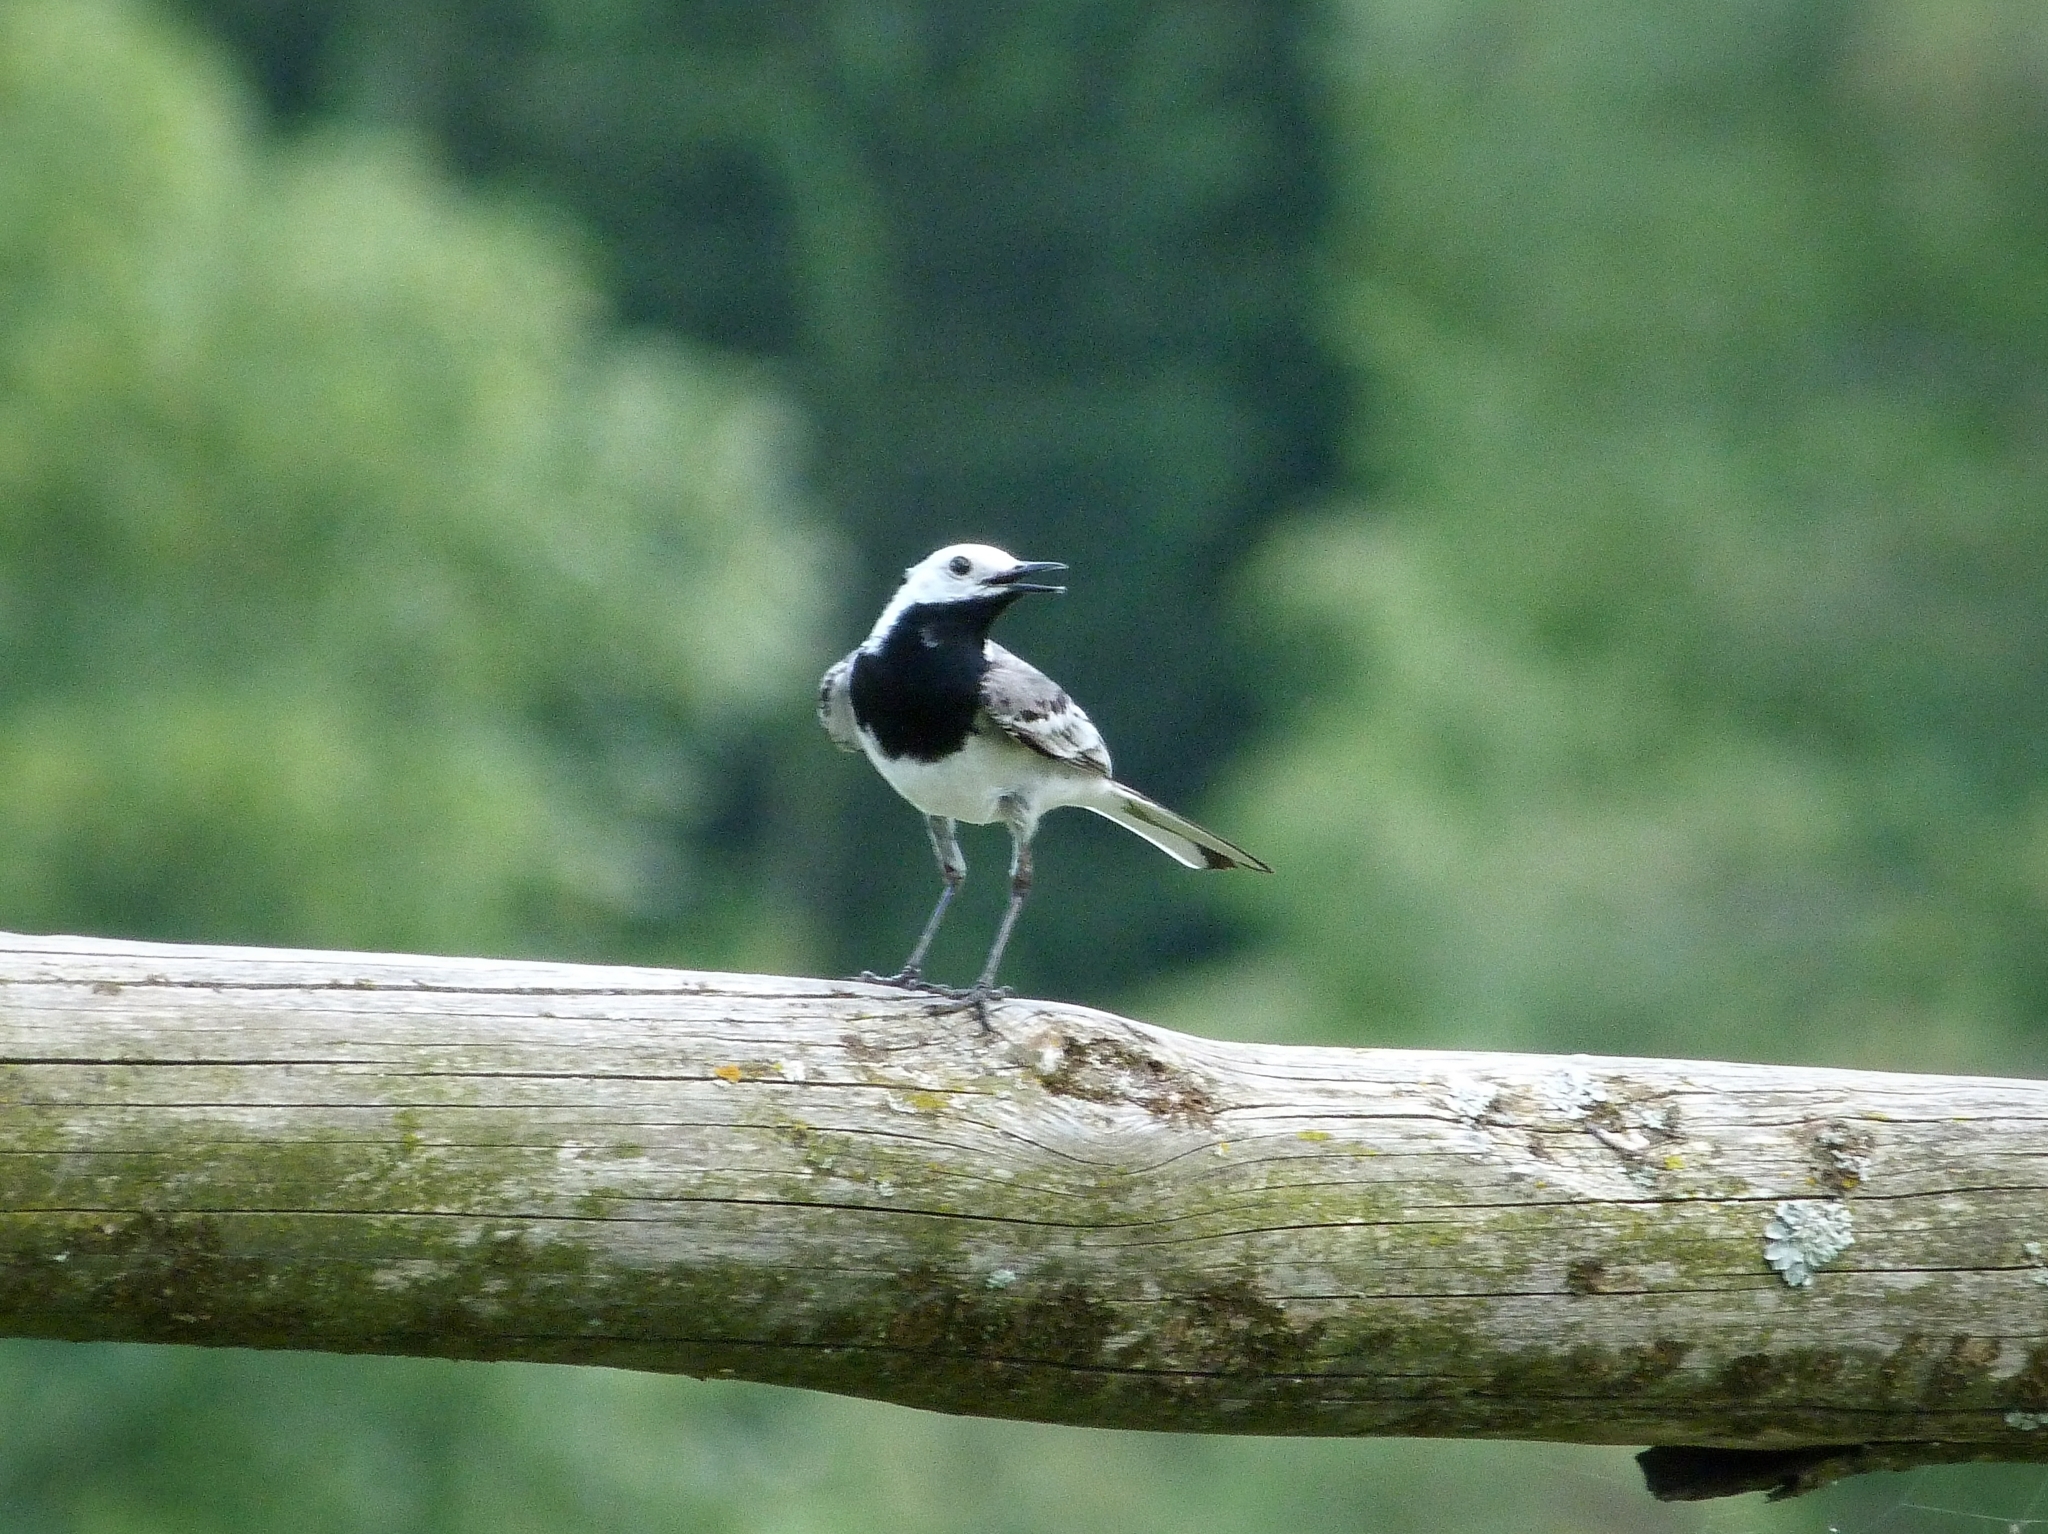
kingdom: Animalia
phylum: Chordata
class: Aves
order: Passeriformes
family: Motacillidae
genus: Motacilla
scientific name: Motacilla alba
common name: White wagtail
